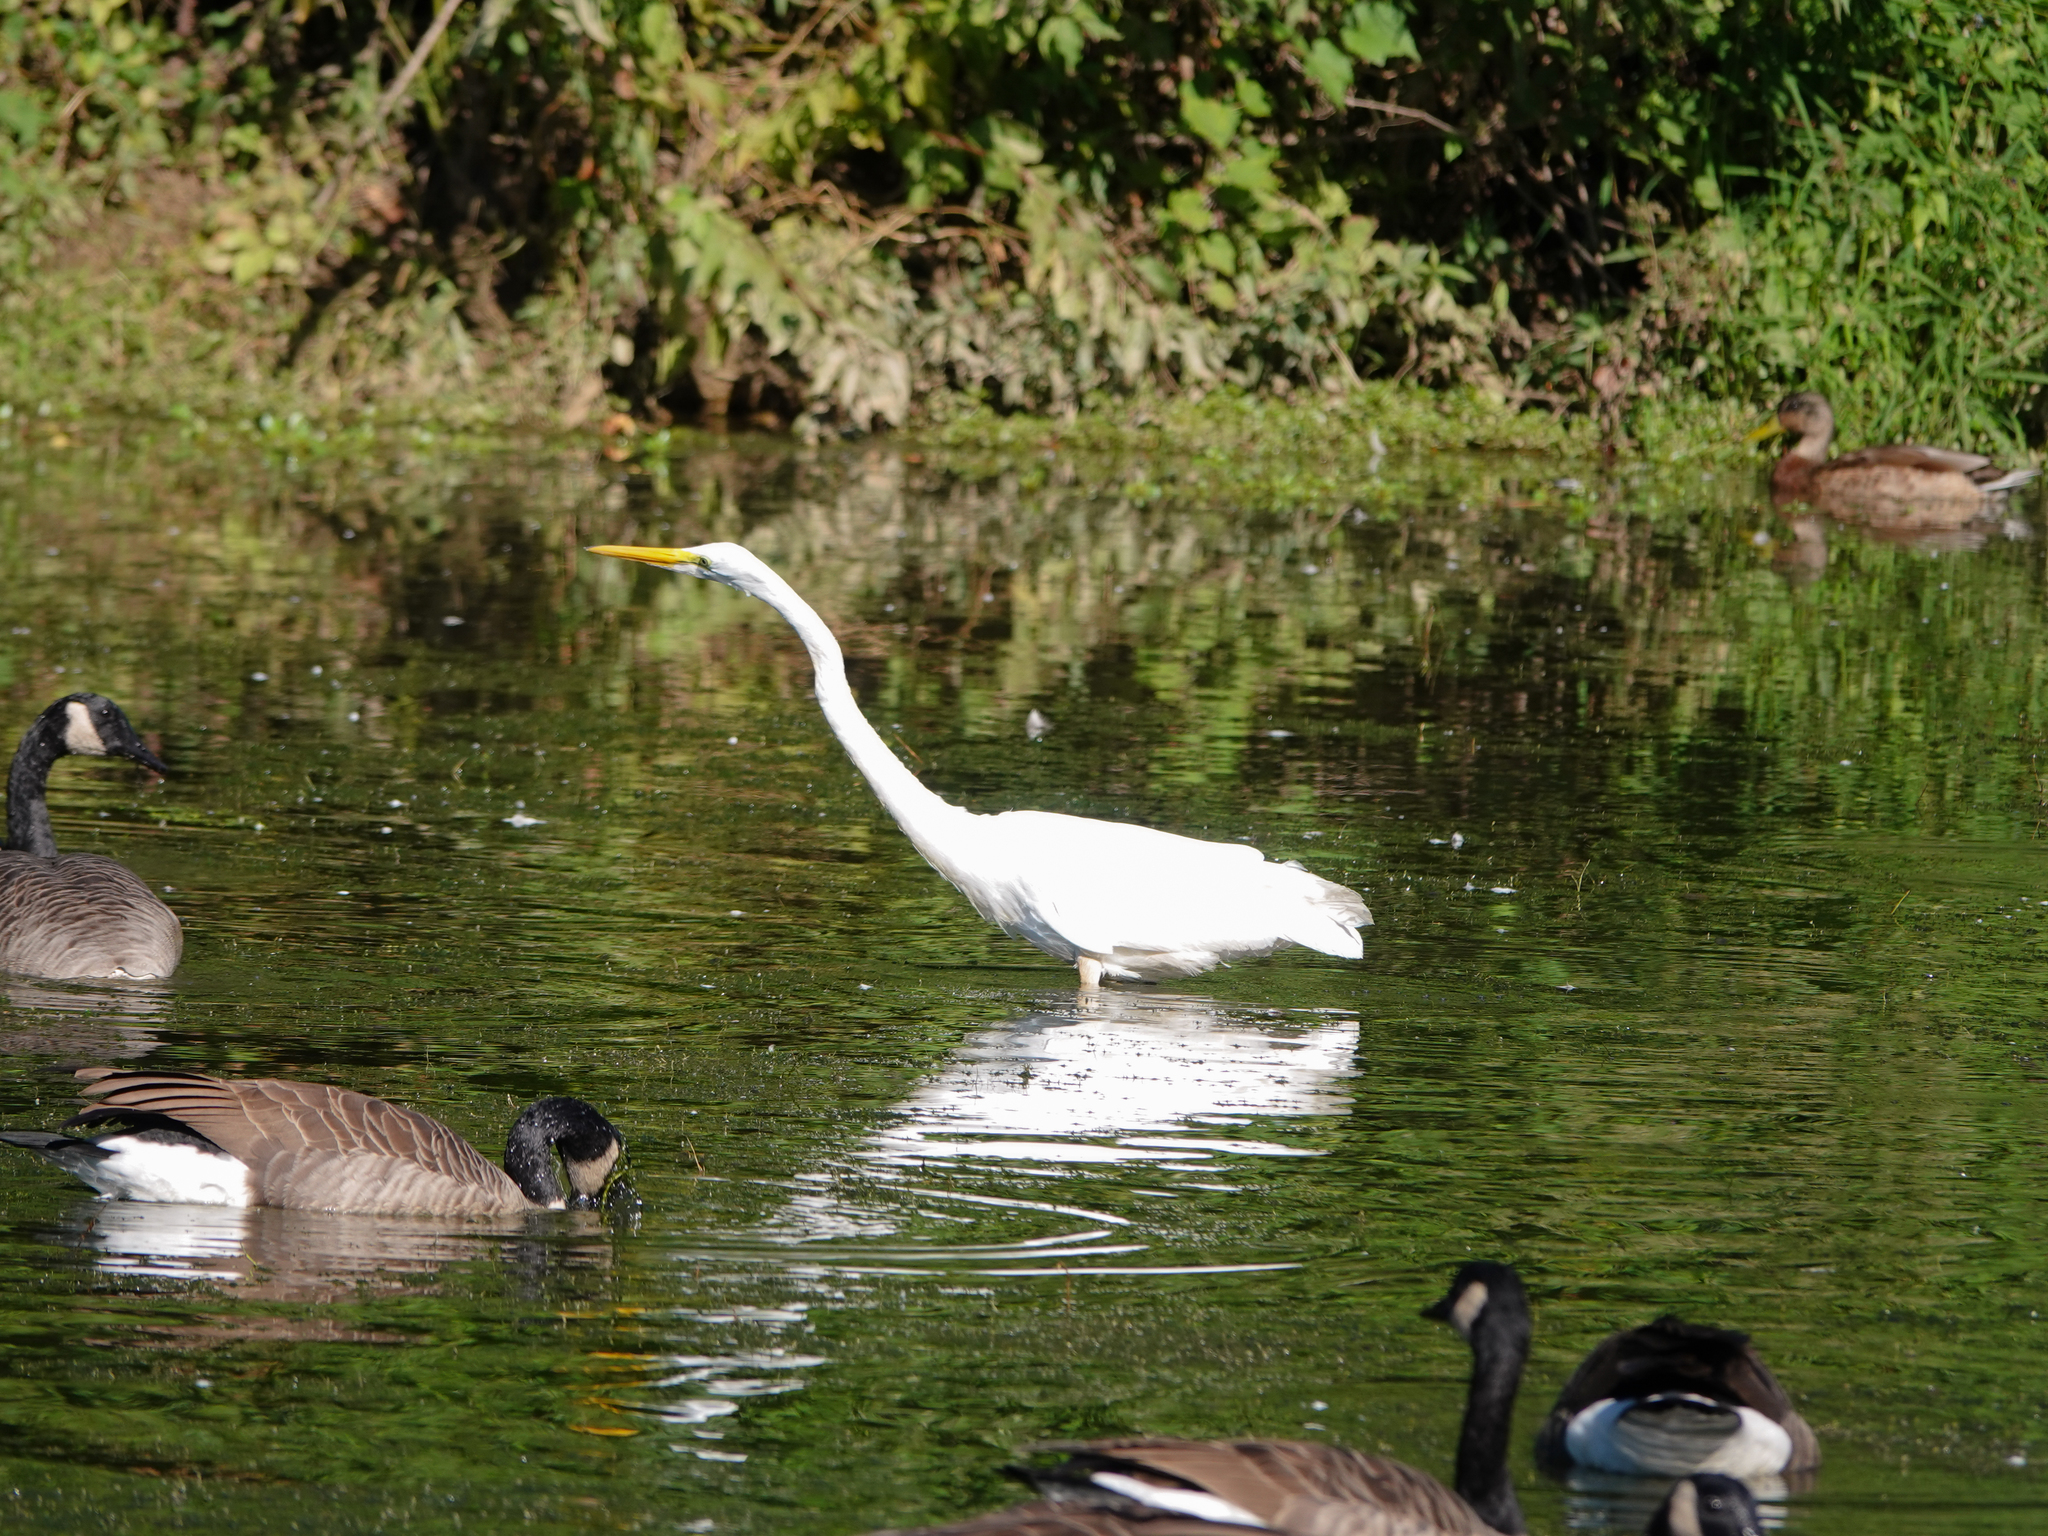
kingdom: Animalia
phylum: Chordata
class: Aves
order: Pelecaniformes
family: Ardeidae
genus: Ardea
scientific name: Ardea alba
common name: Great egret
